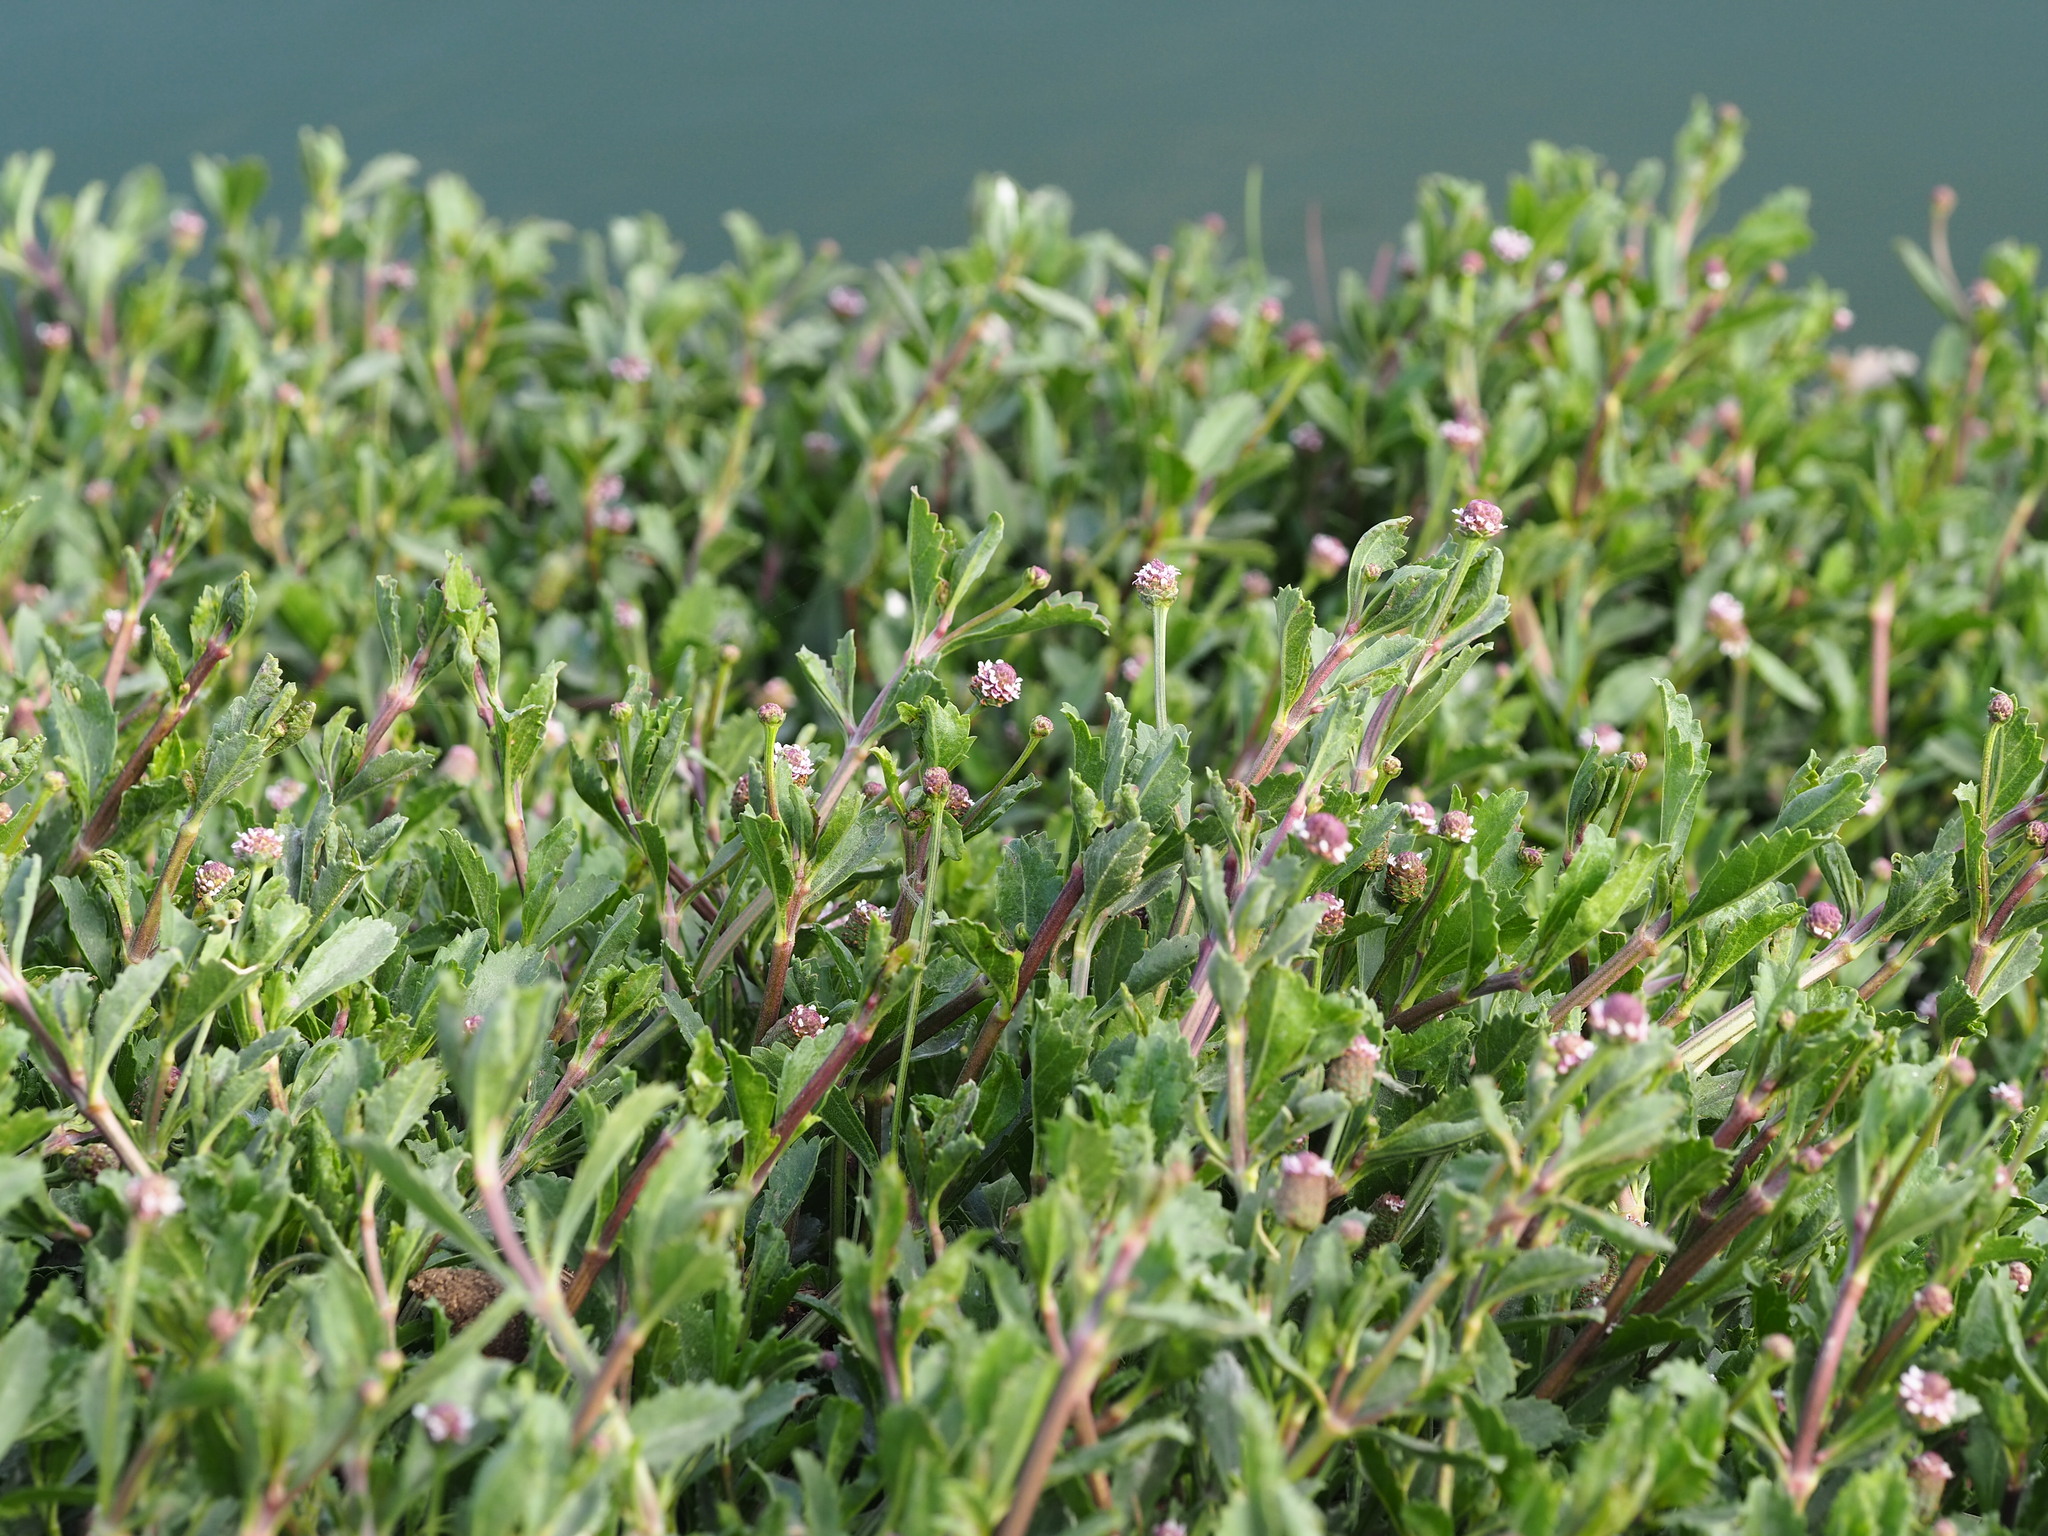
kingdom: Plantae
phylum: Tracheophyta
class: Magnoliopsida
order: Lamiales
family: Verbenaceae
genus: Phyla
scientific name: Phyla nodiflora
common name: Frogfruit
